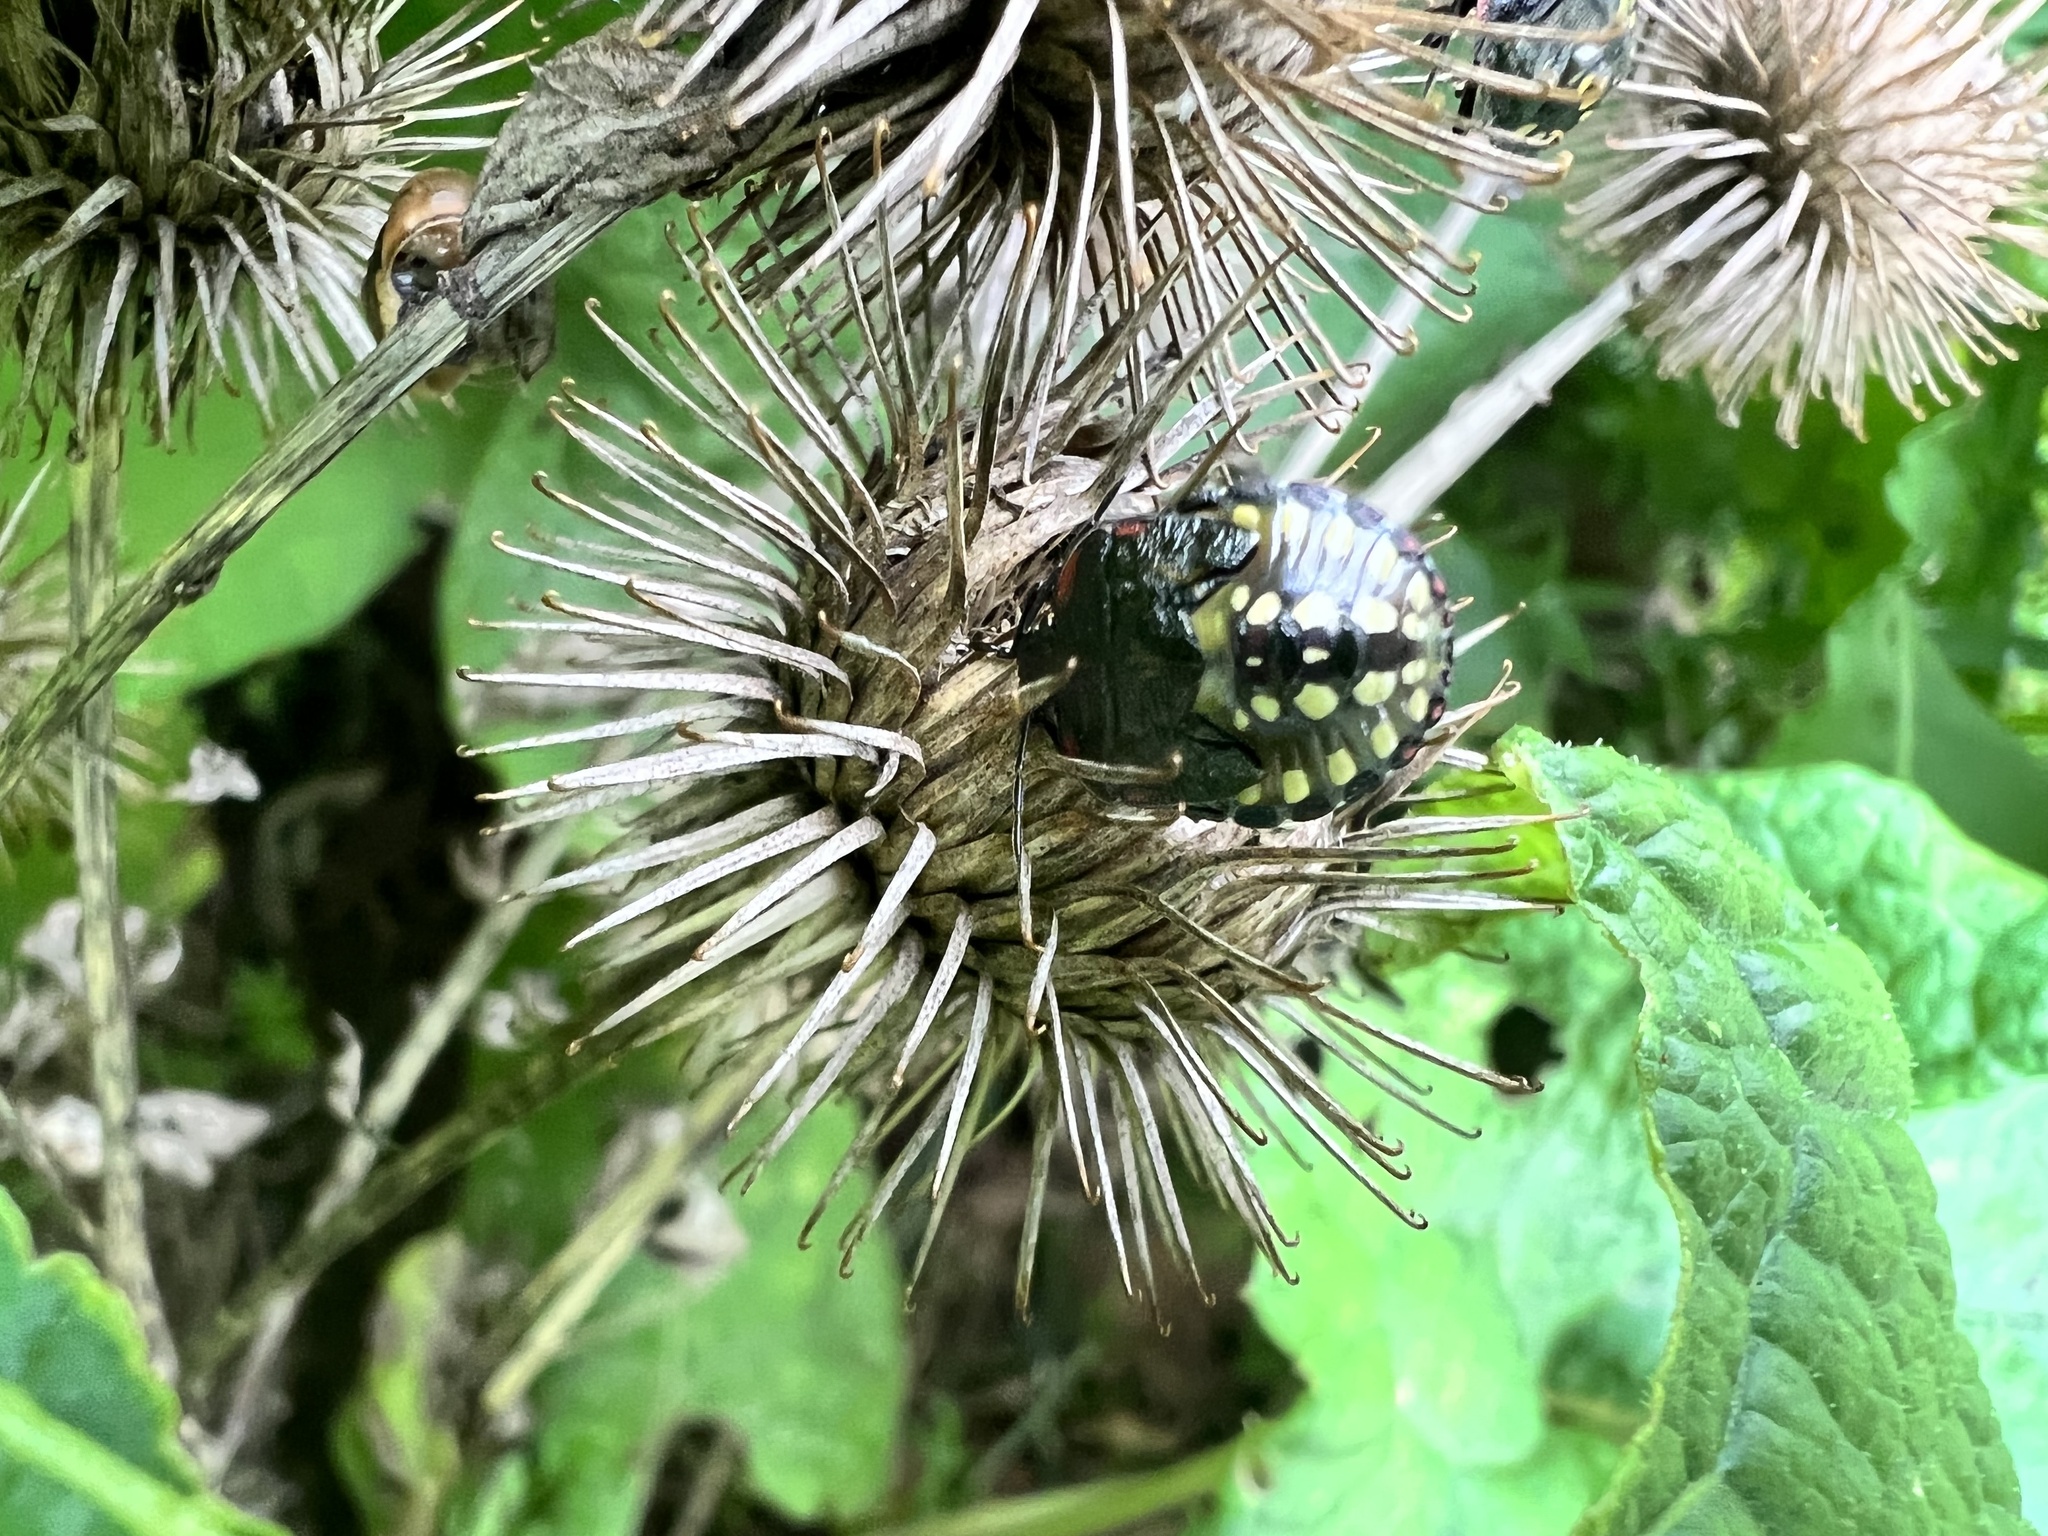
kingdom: Animalia
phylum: Arthropoda
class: Insecta
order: Hemiptera
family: Pentatomidae
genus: Nezara
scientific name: Nezara viridula
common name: Southern green stink bug
